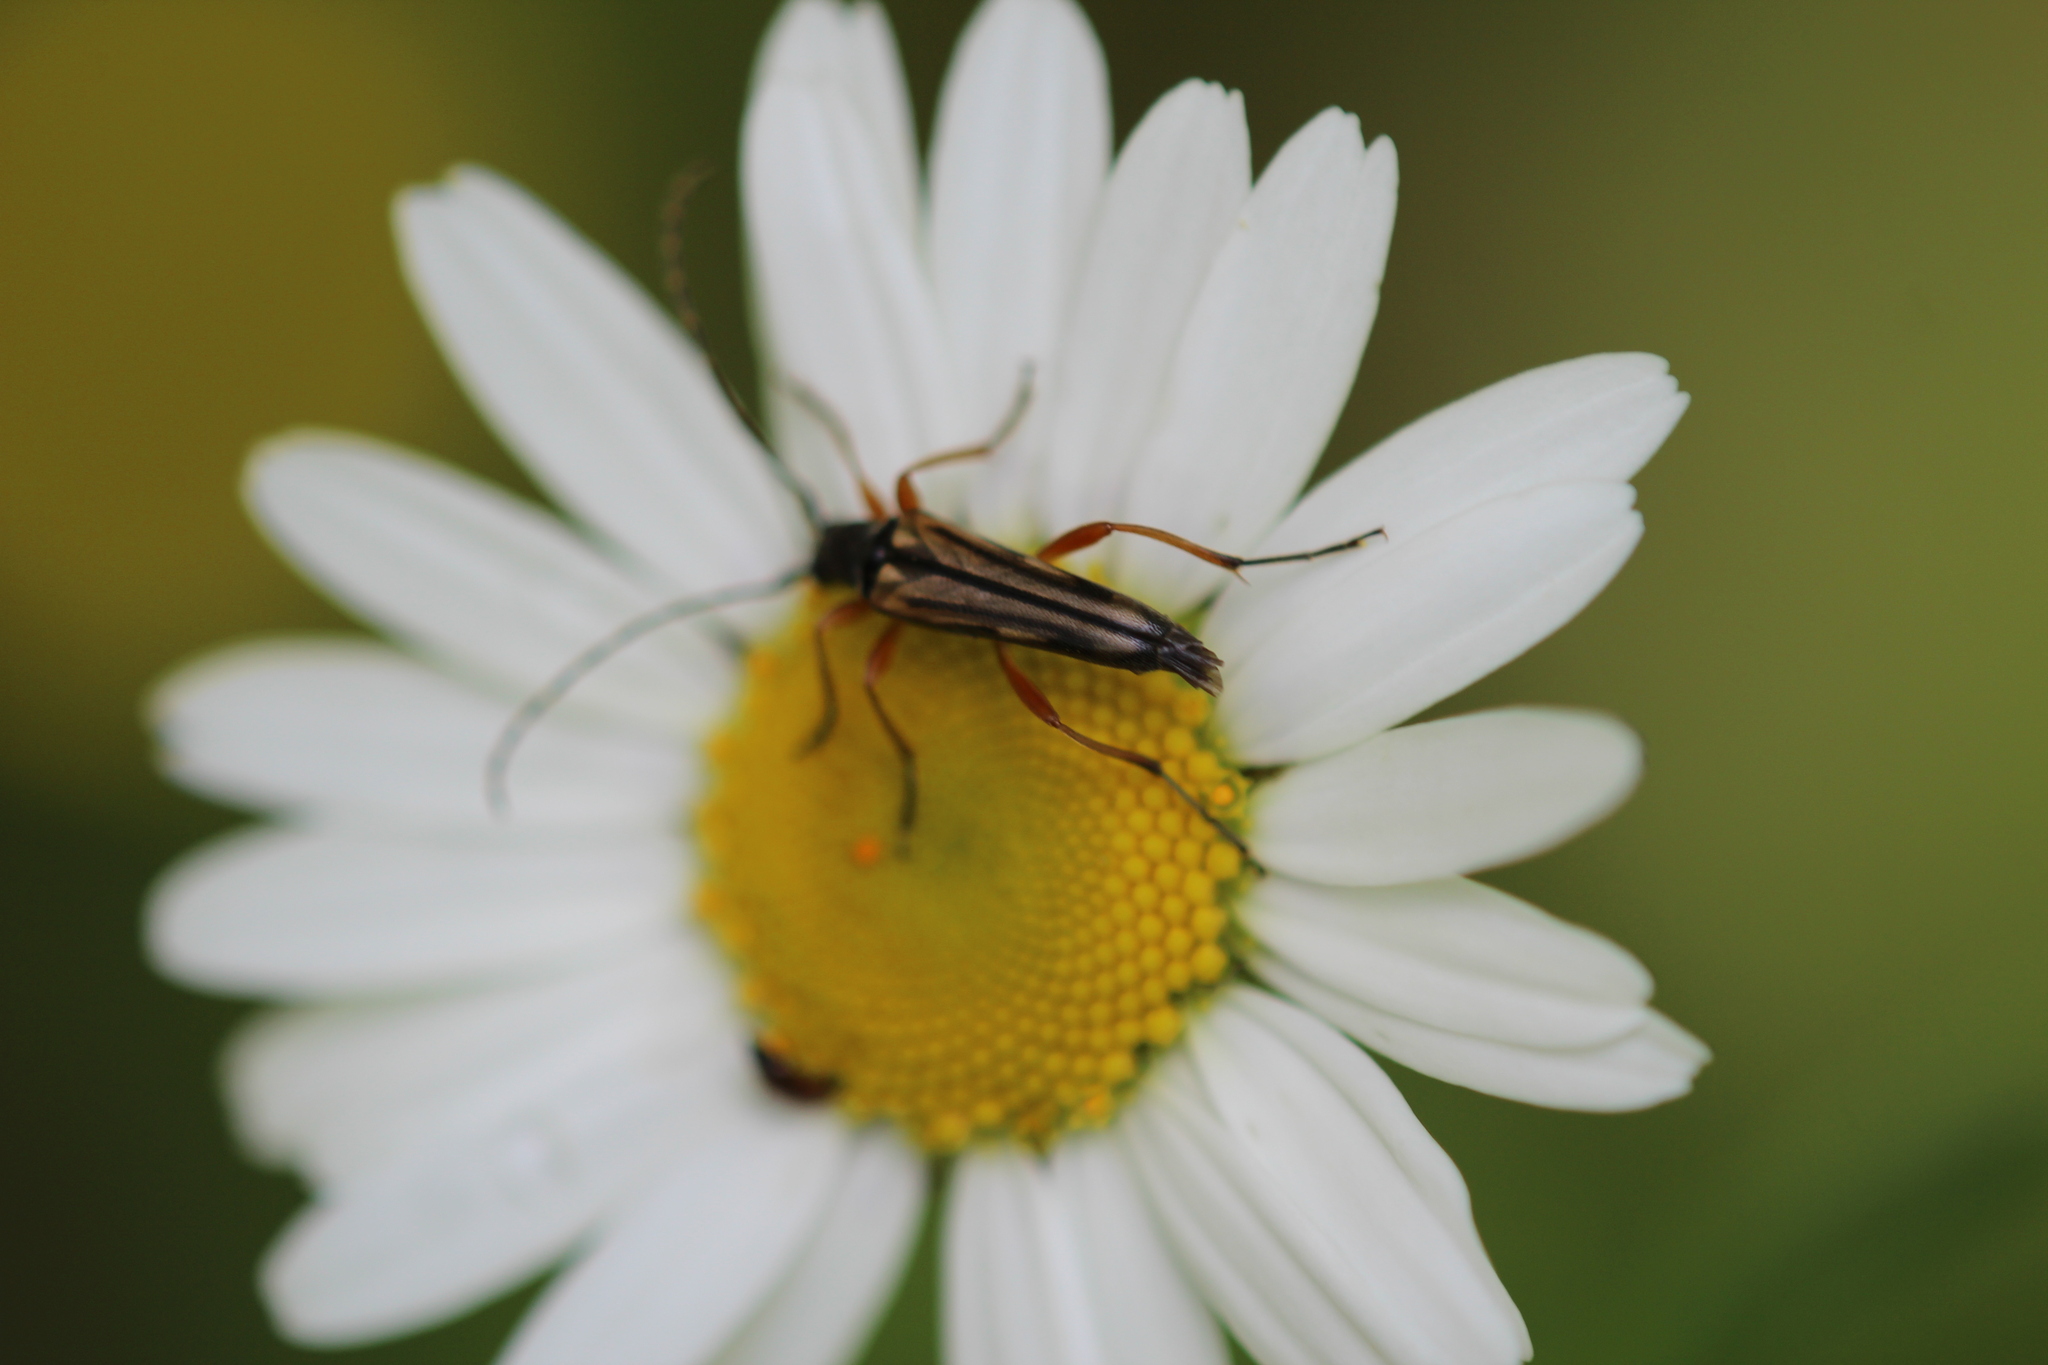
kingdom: Animalia
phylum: Arthropoda
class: Insecta
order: Coleoptera
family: Cerambycidae
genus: Analeptura
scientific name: Analeptura lineola
